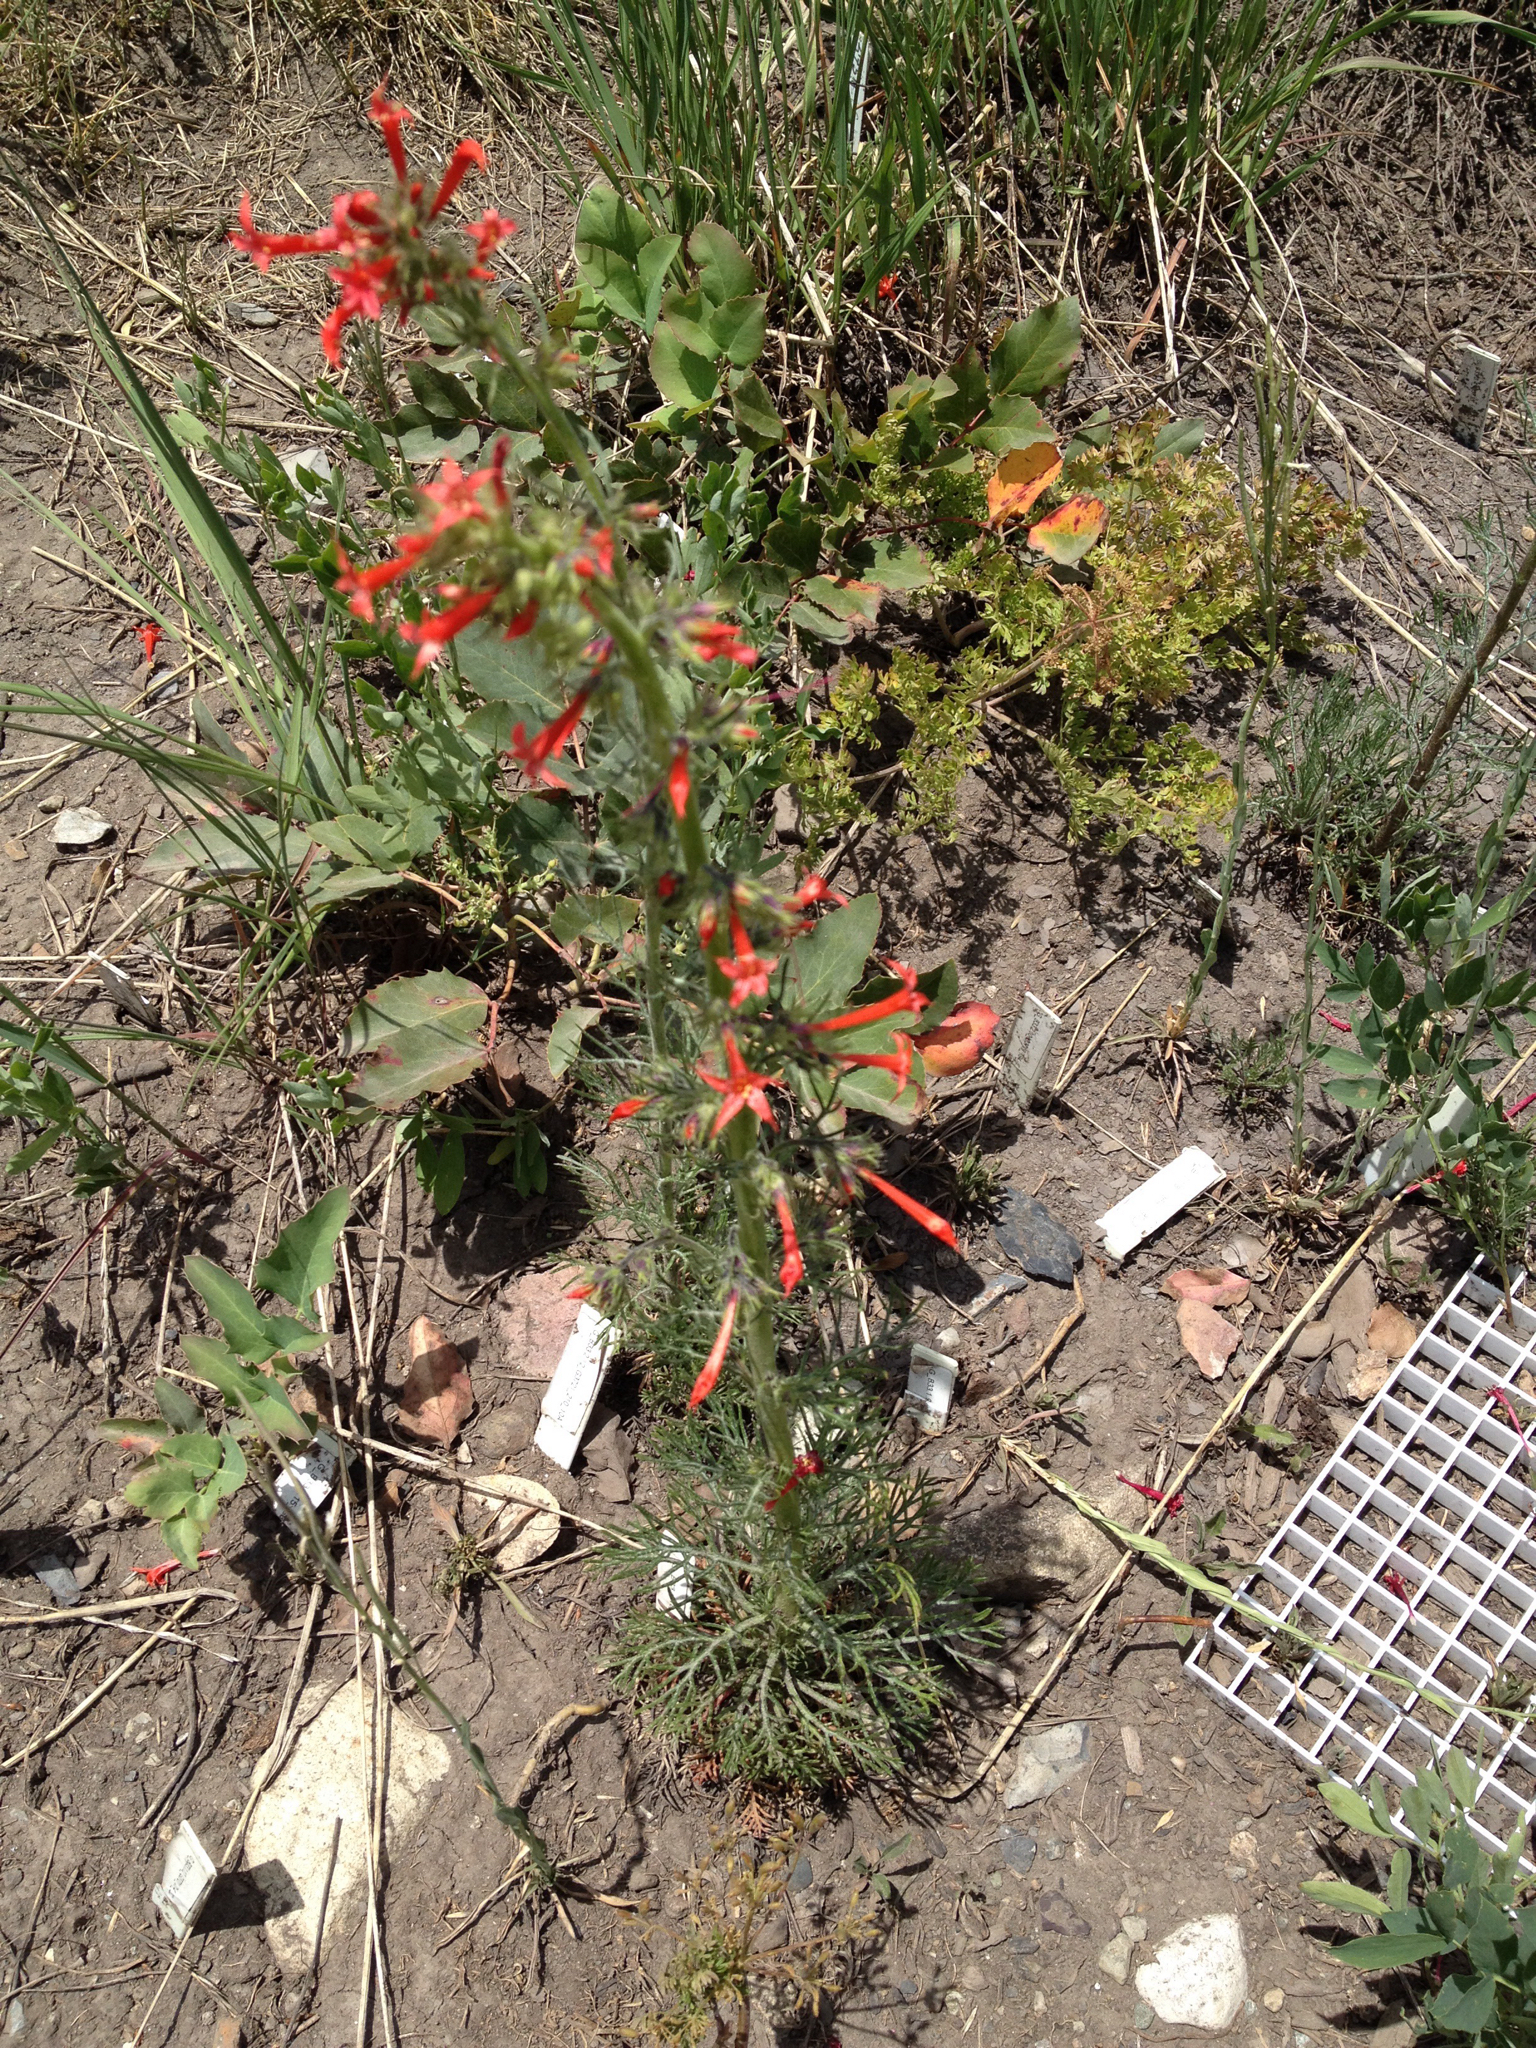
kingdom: Plantae
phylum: Tracheophyta
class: Magnoliopsida
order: Ericales
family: Polemoniaceae
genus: Ipomopsis
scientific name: Ipomopsis aggregata
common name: Scarlet gilia
